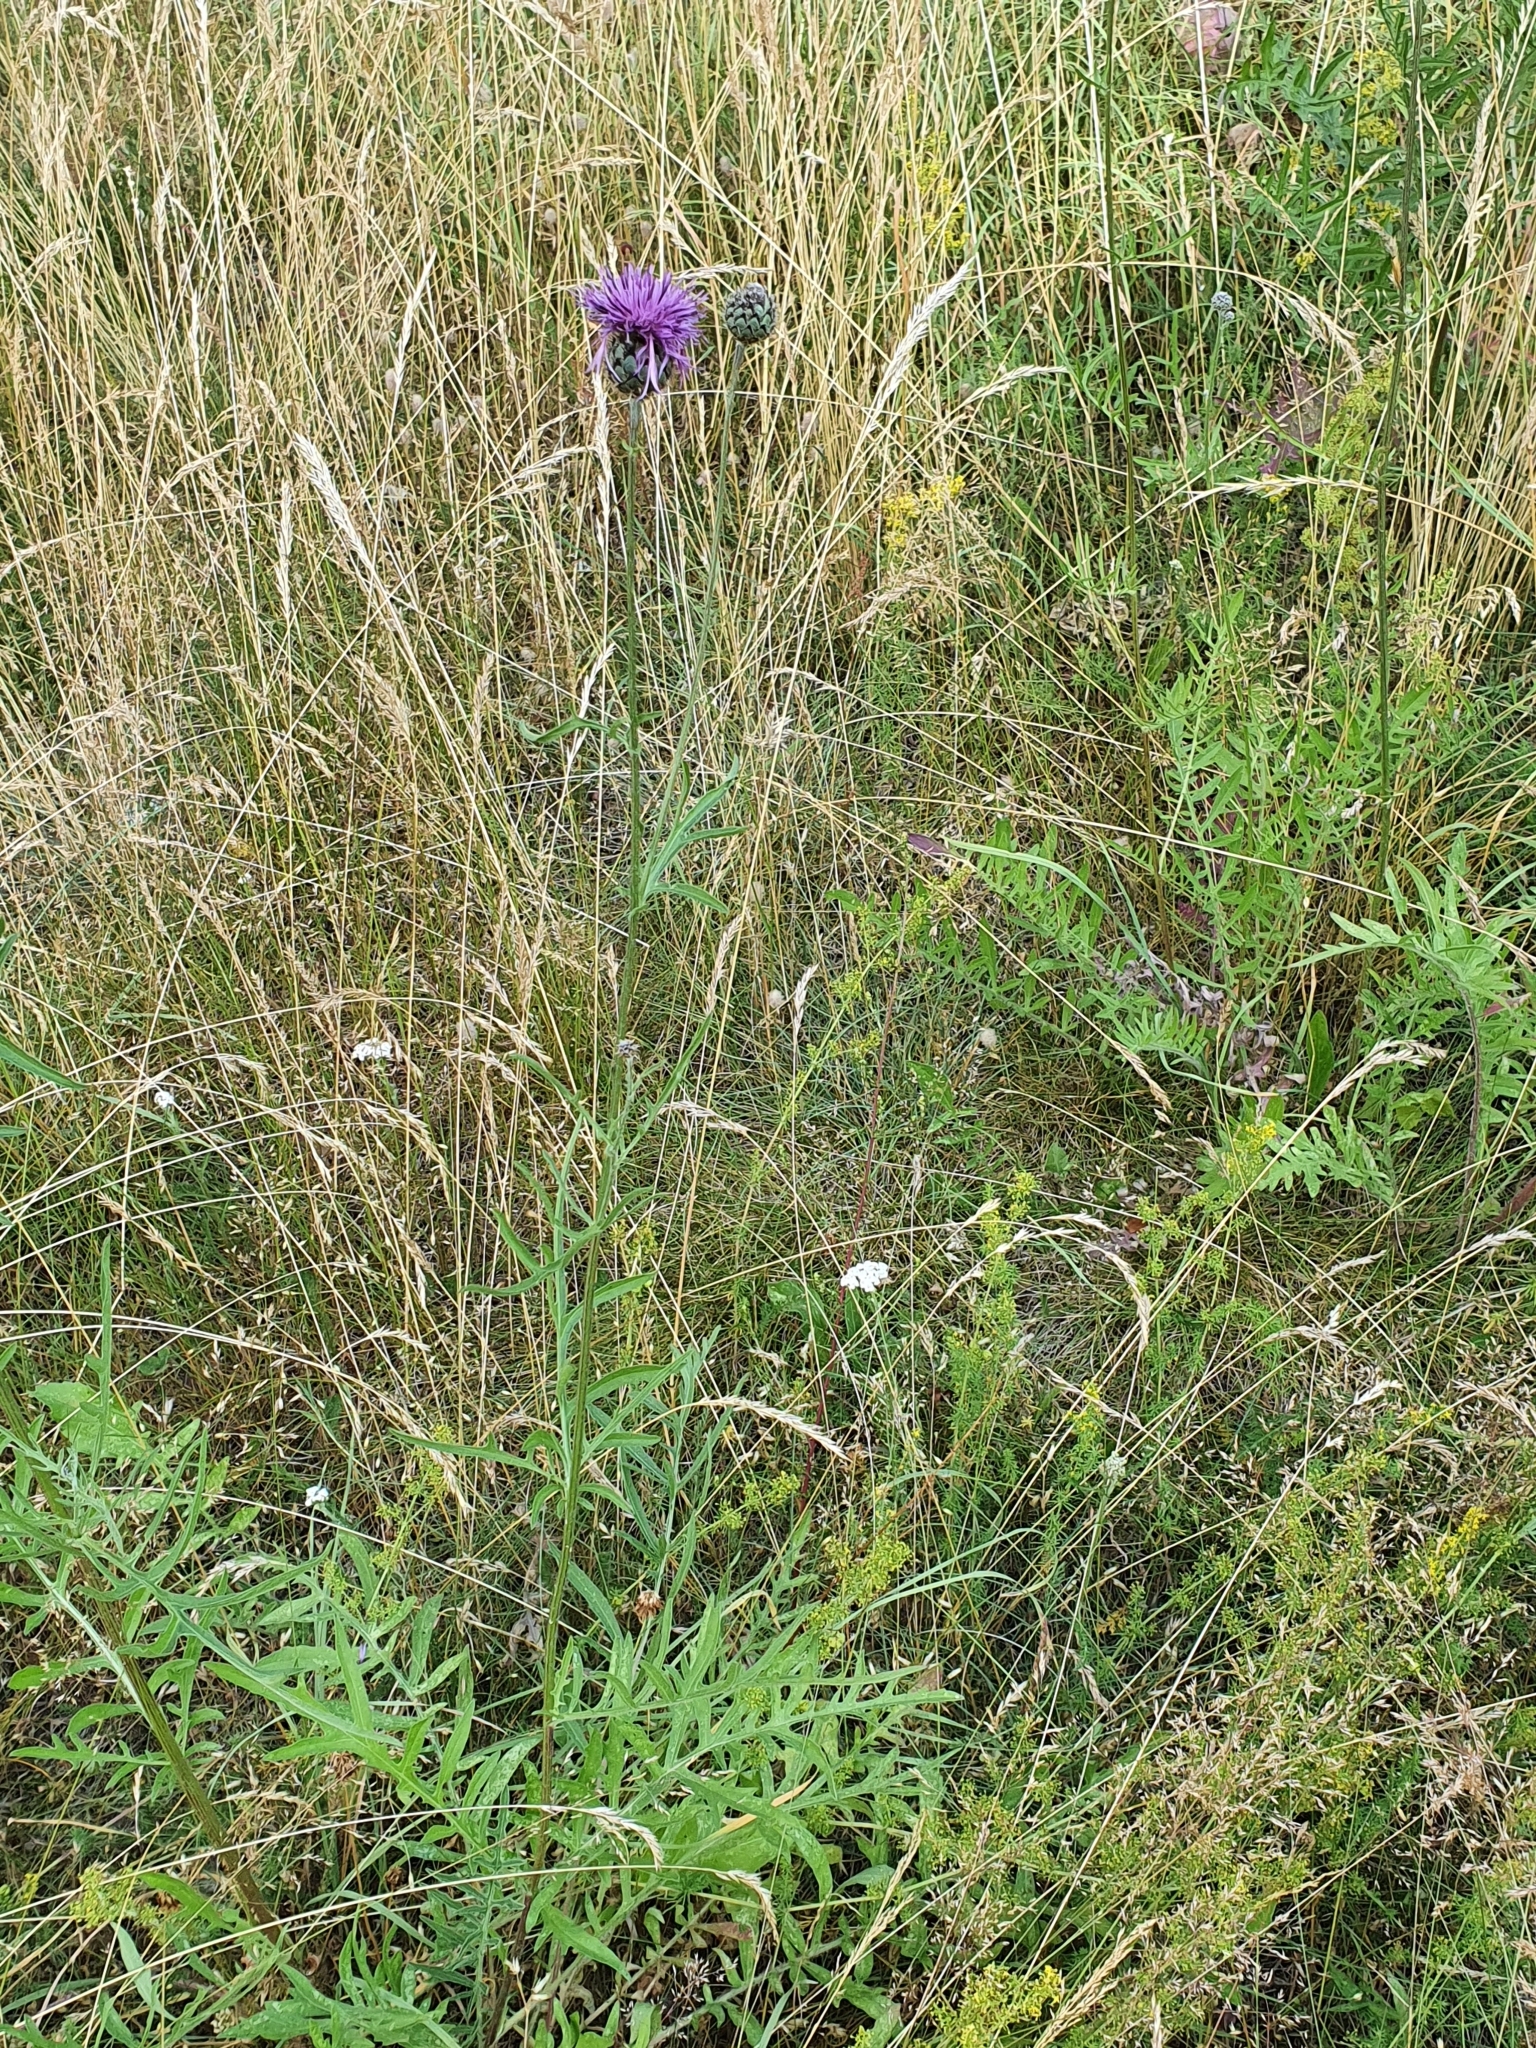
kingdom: Plantae
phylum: Tracheophyta
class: Magnoliopsida
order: Asterales
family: Asteraceae
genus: Centaurea
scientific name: Centaurea scabiosa
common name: Greater knapweed
